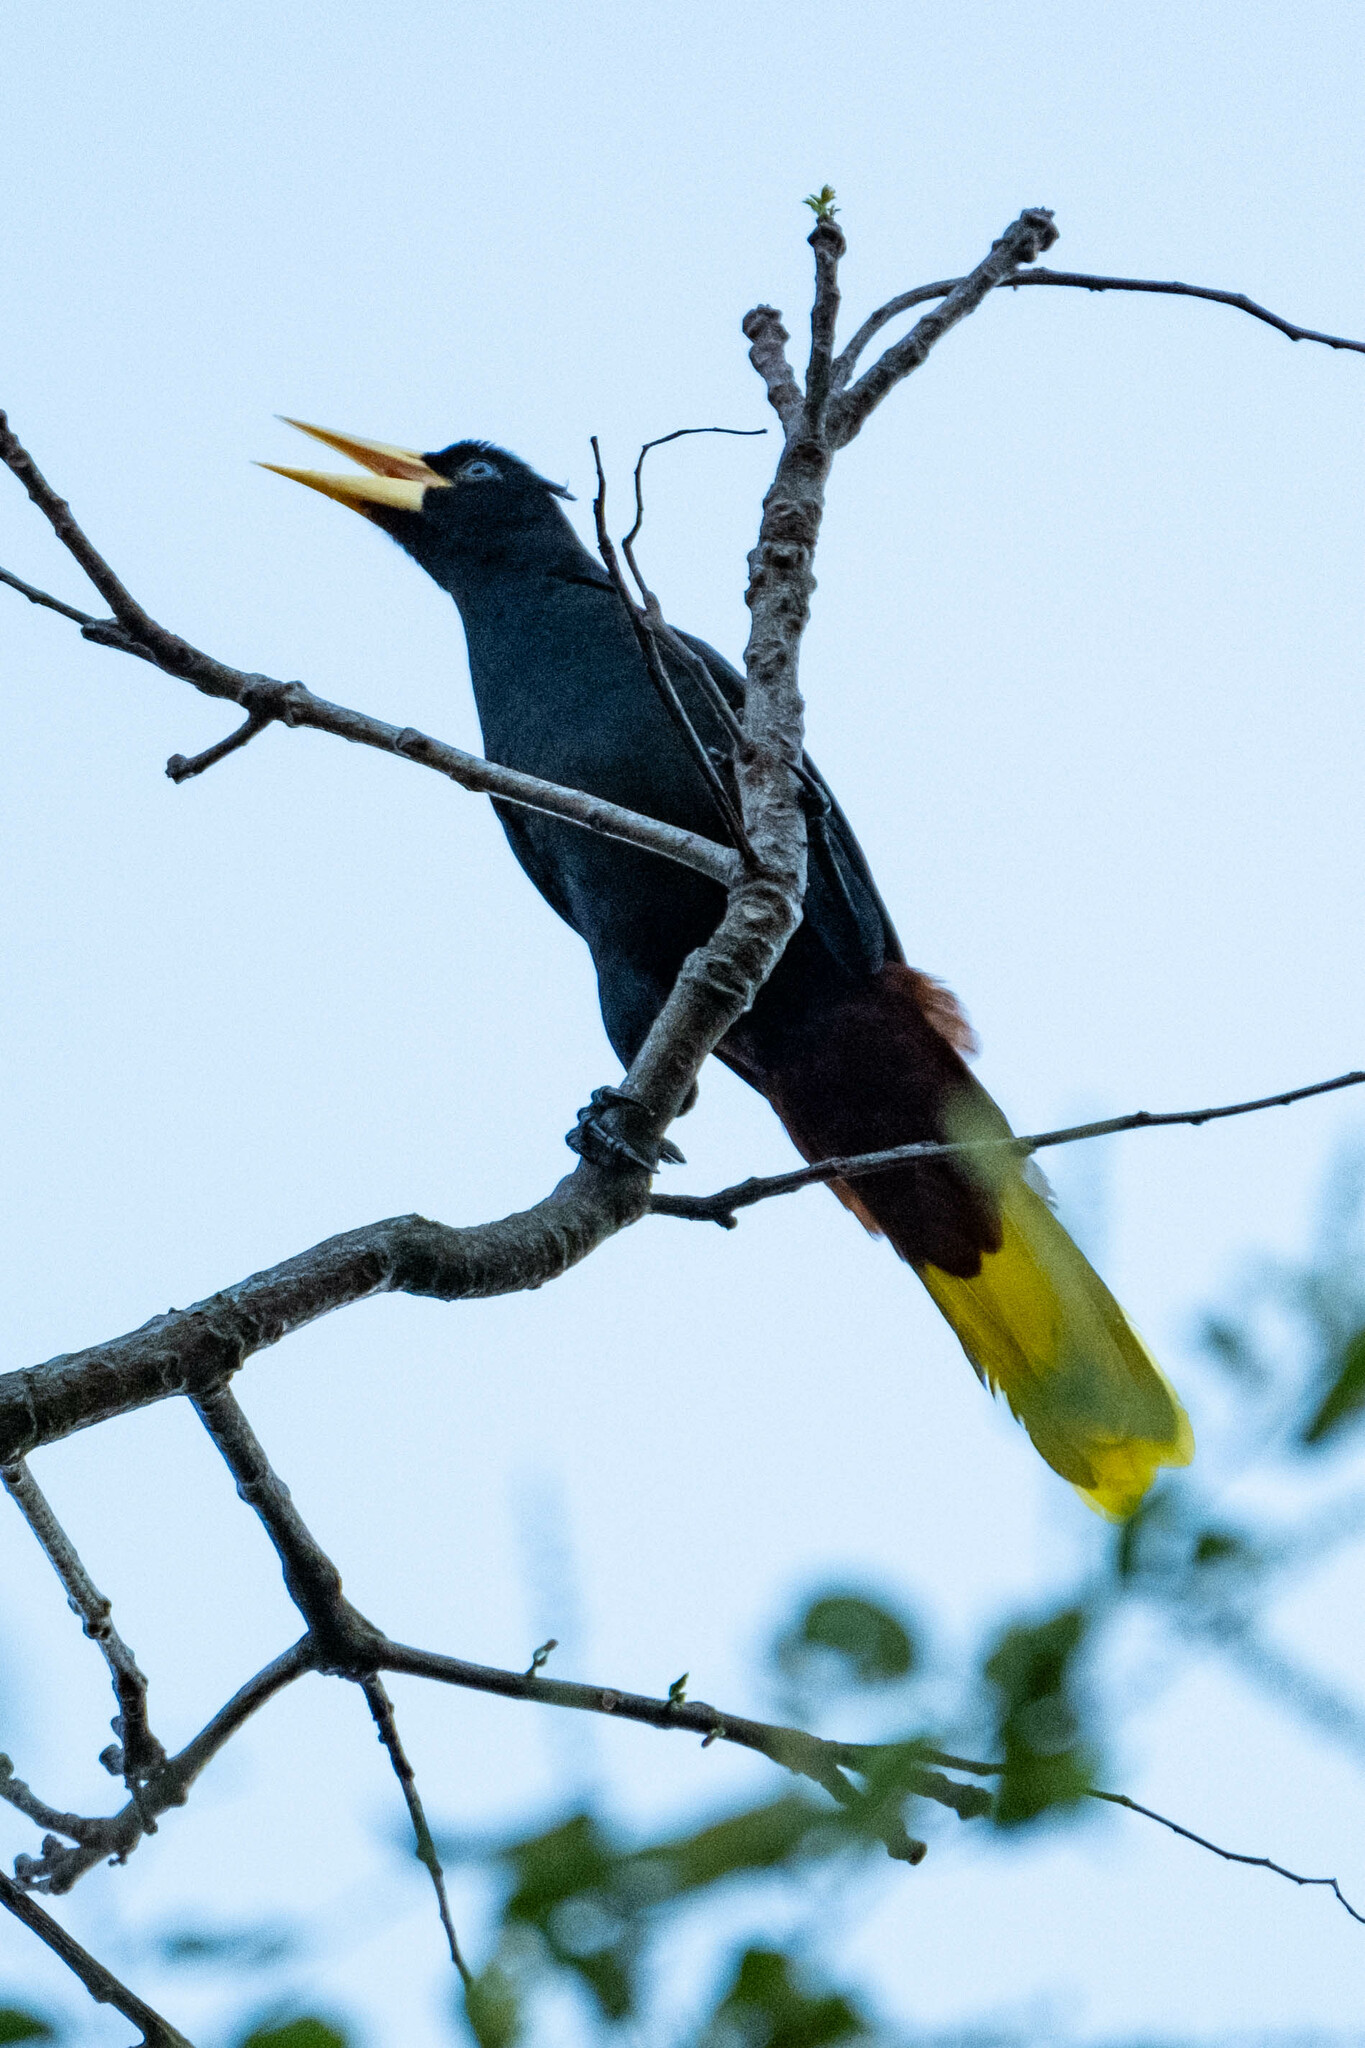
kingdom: Animalia
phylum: Chordata
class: Aves
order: Passeriformes
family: Icteridae
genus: Psarocolius
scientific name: Psarocolius decumanus
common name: Crested oropendola
